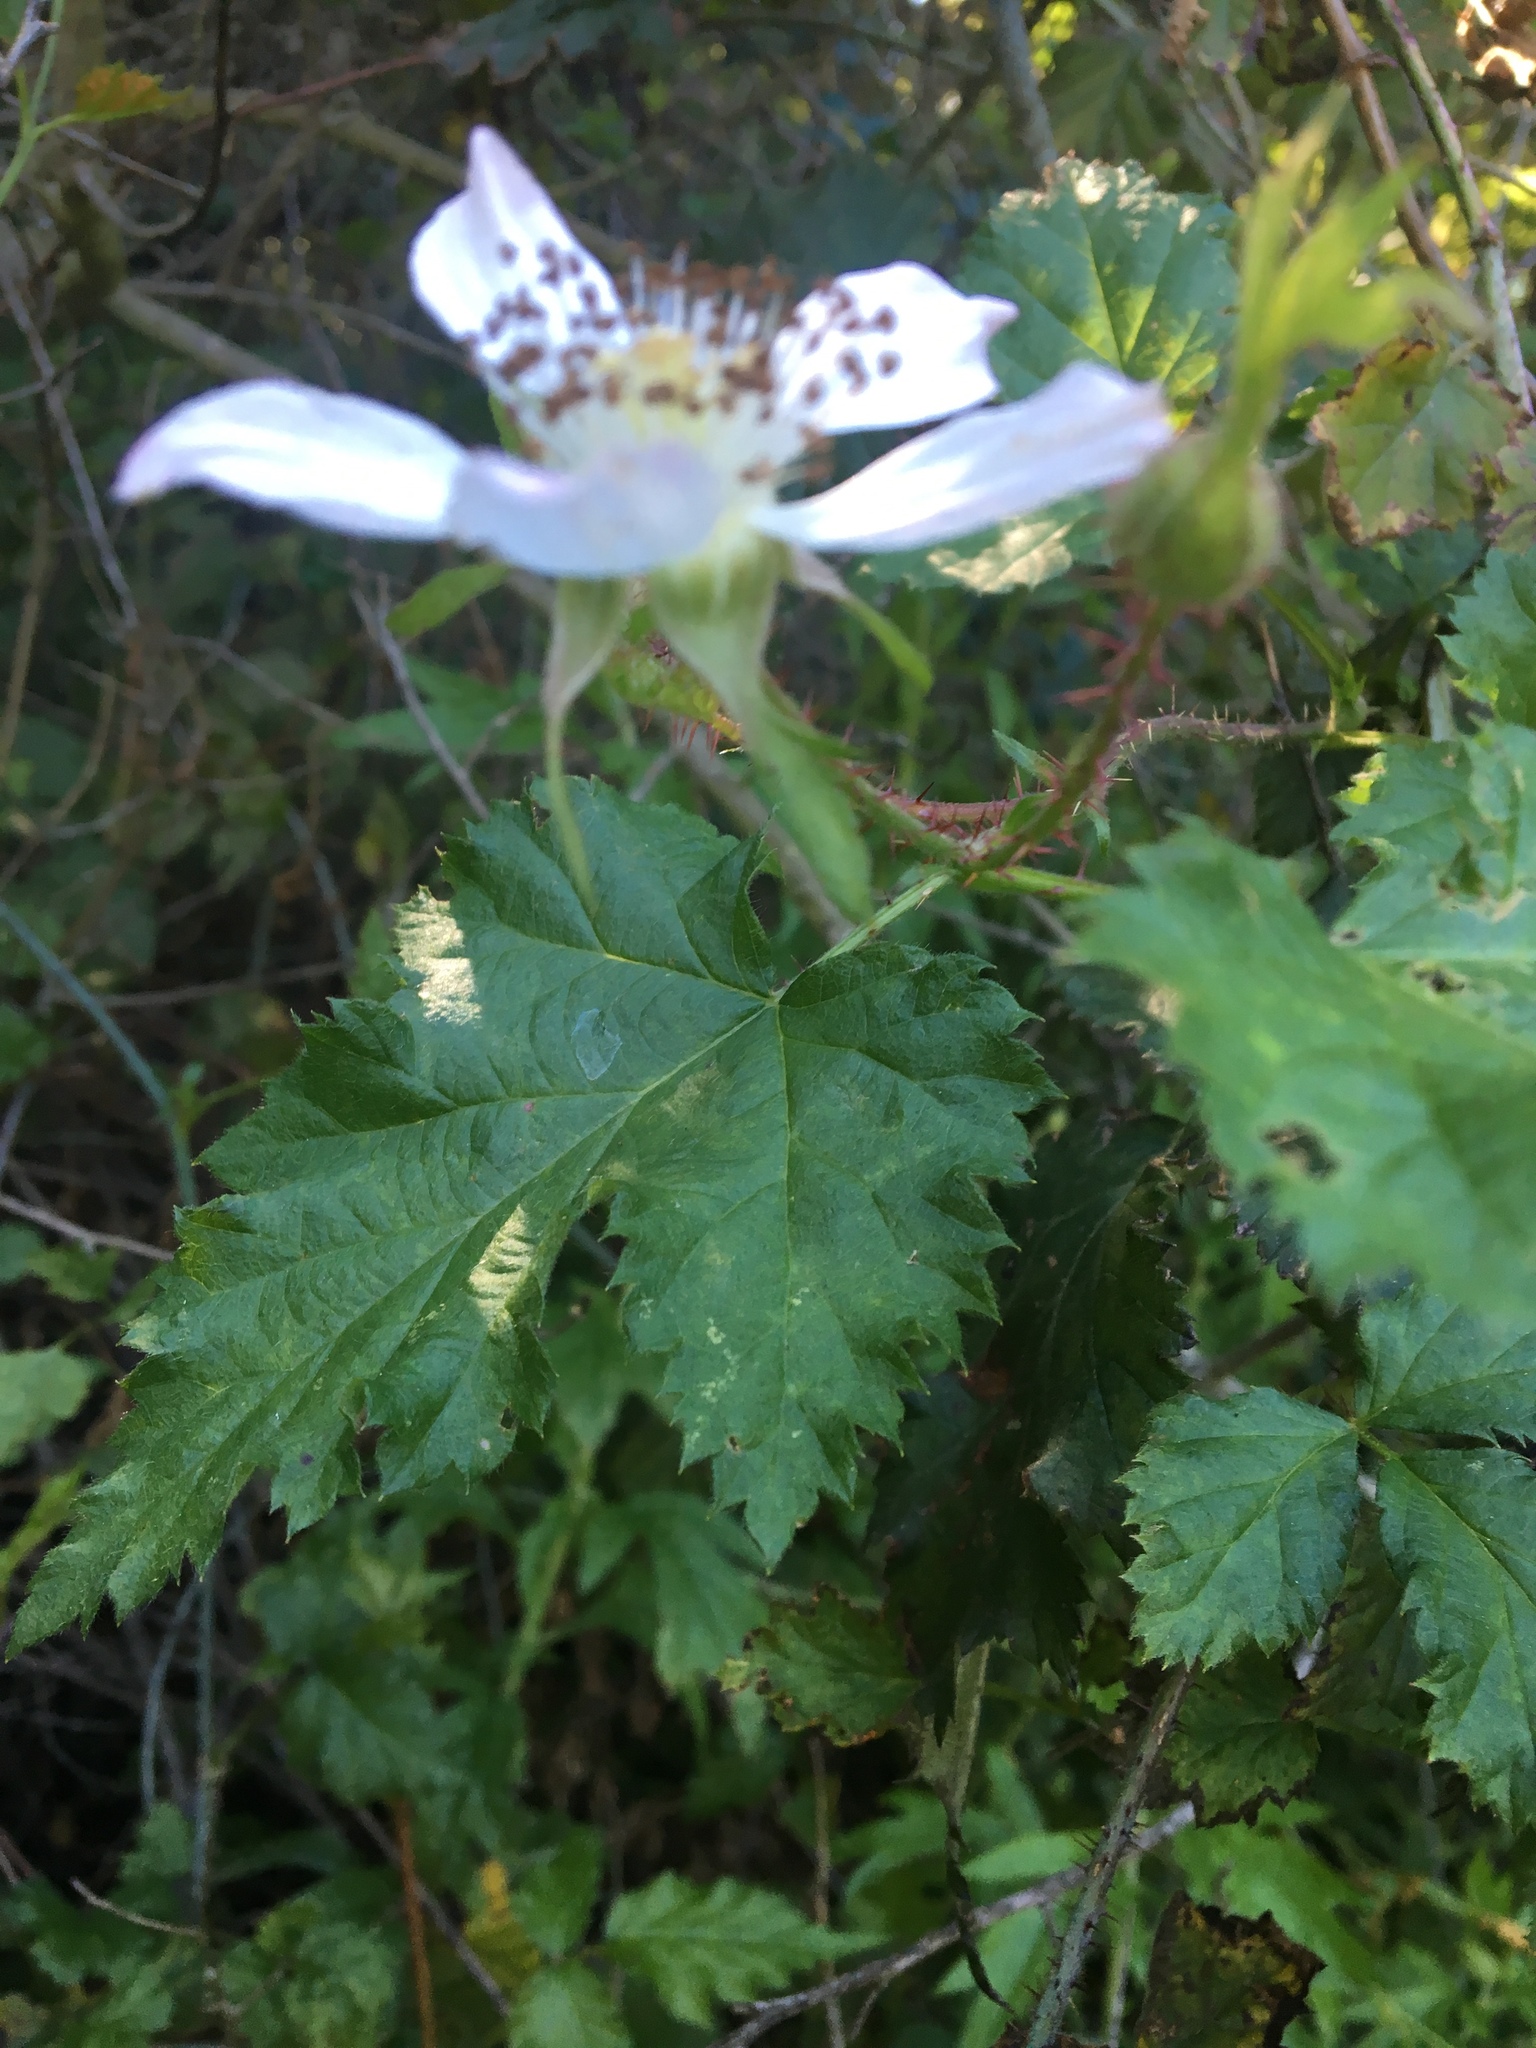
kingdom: Plantae
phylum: Tracheophyta
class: Magnoliopsida
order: Rosales
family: Rosaceae
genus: Rubus
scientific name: Rubus ursinus
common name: Pacific blackberry
